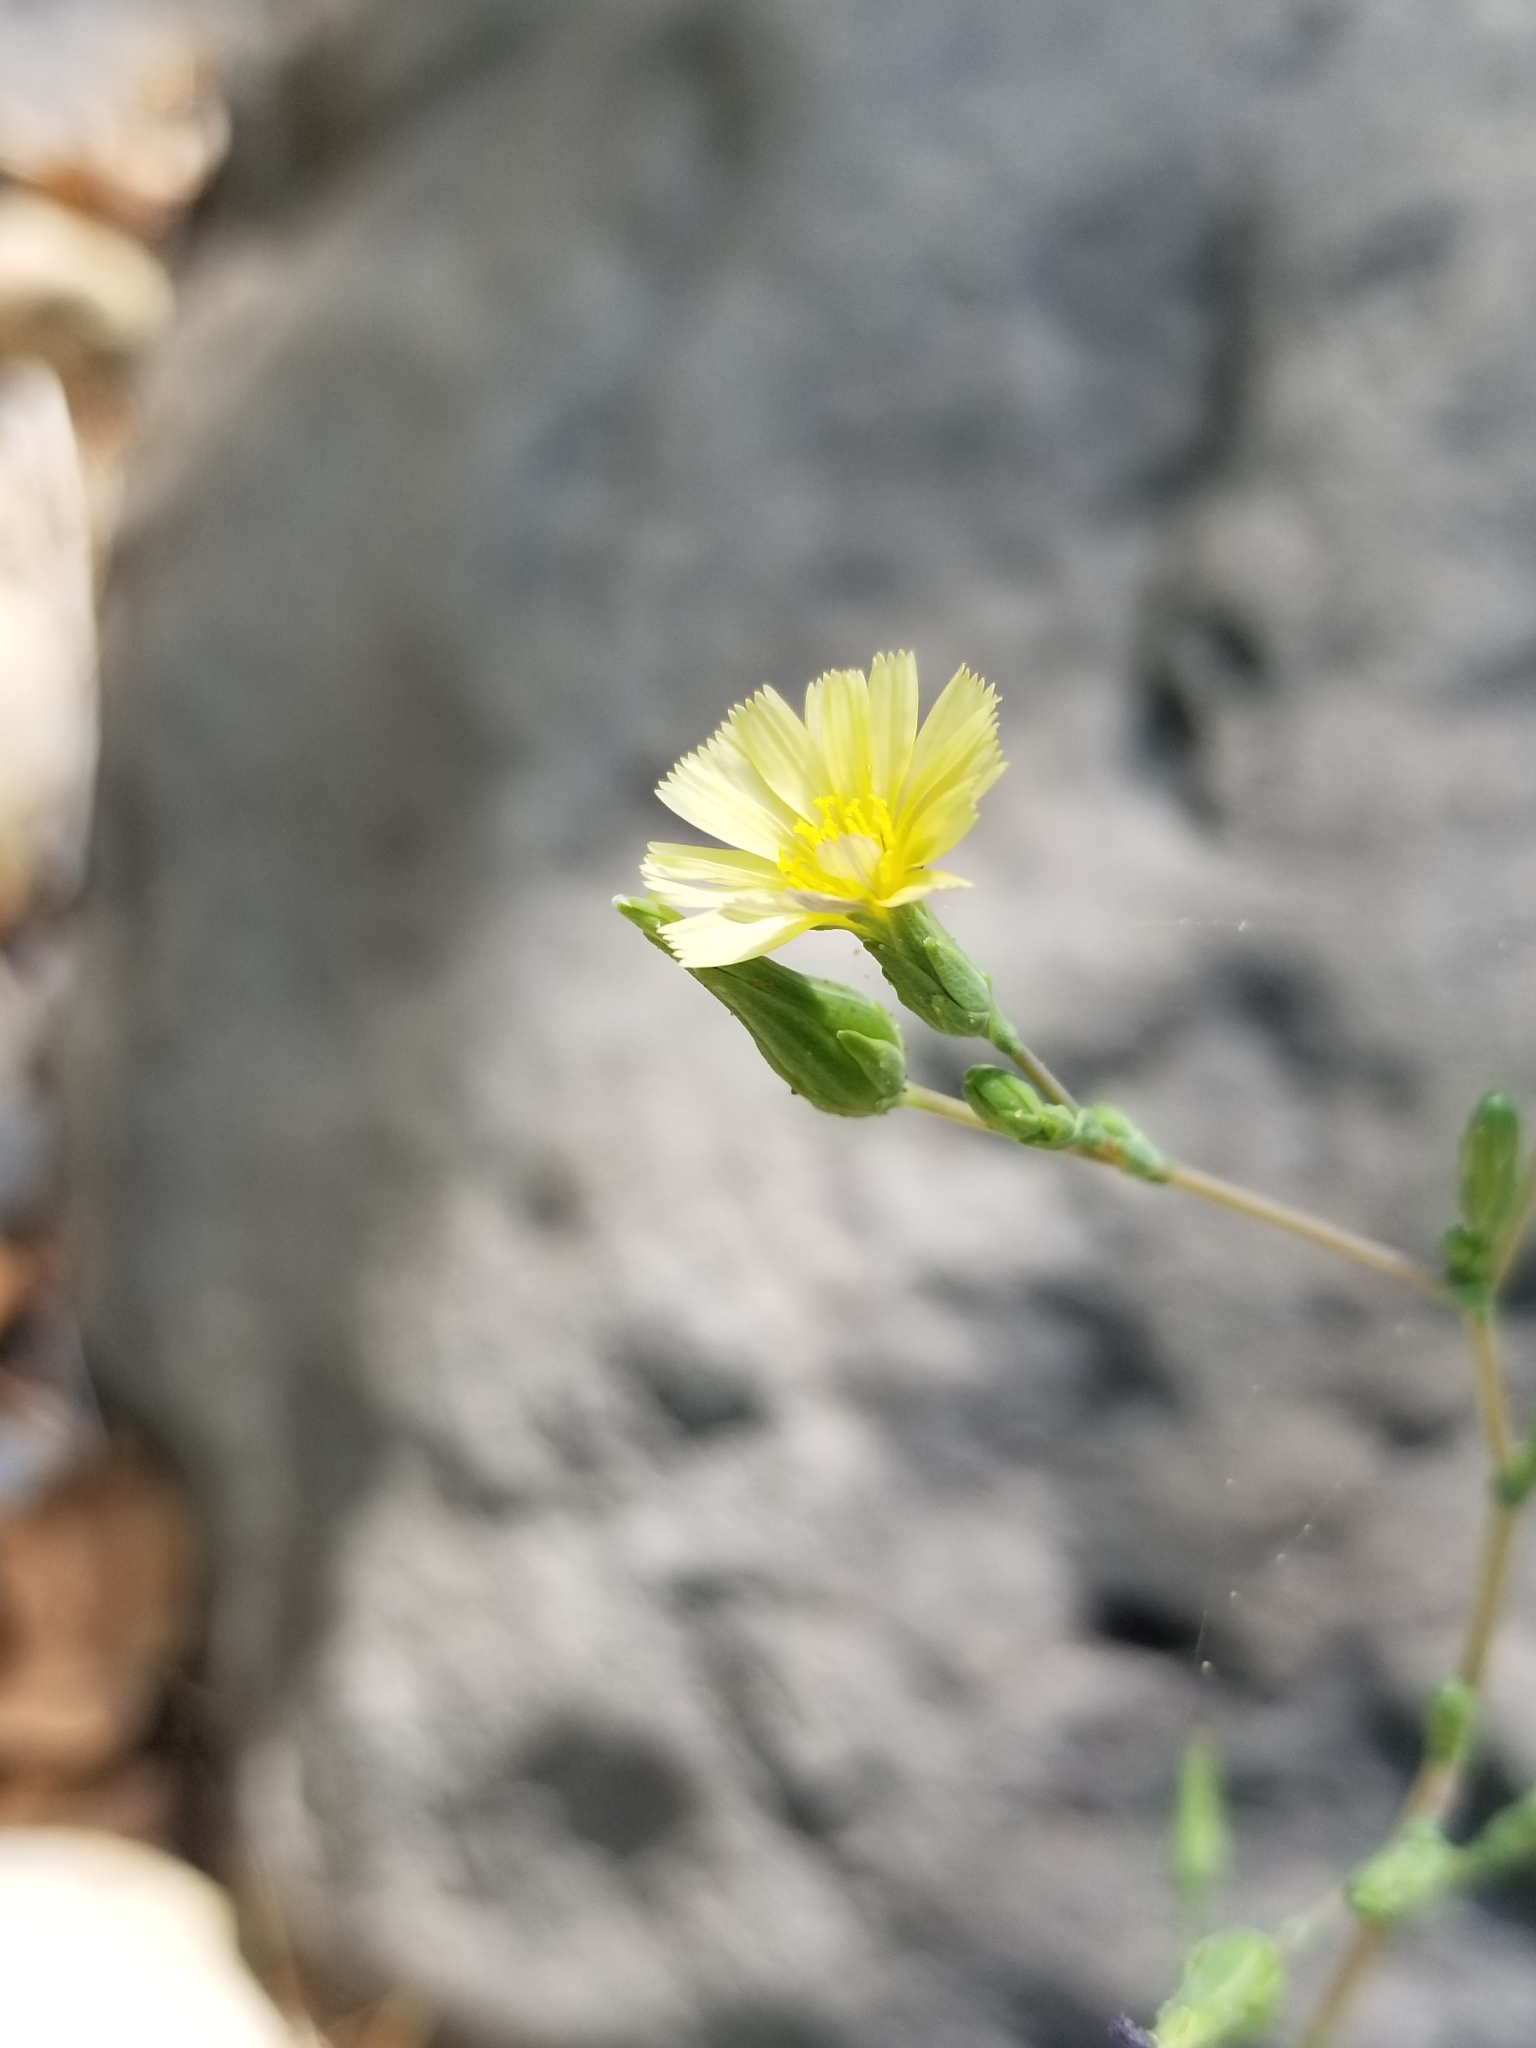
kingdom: Plantae
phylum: Tracheophyta
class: Magnoliopsida
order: Asterales
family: Asteraceae
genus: Lactuca
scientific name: Lactuca serriola
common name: Prickly lettuce
